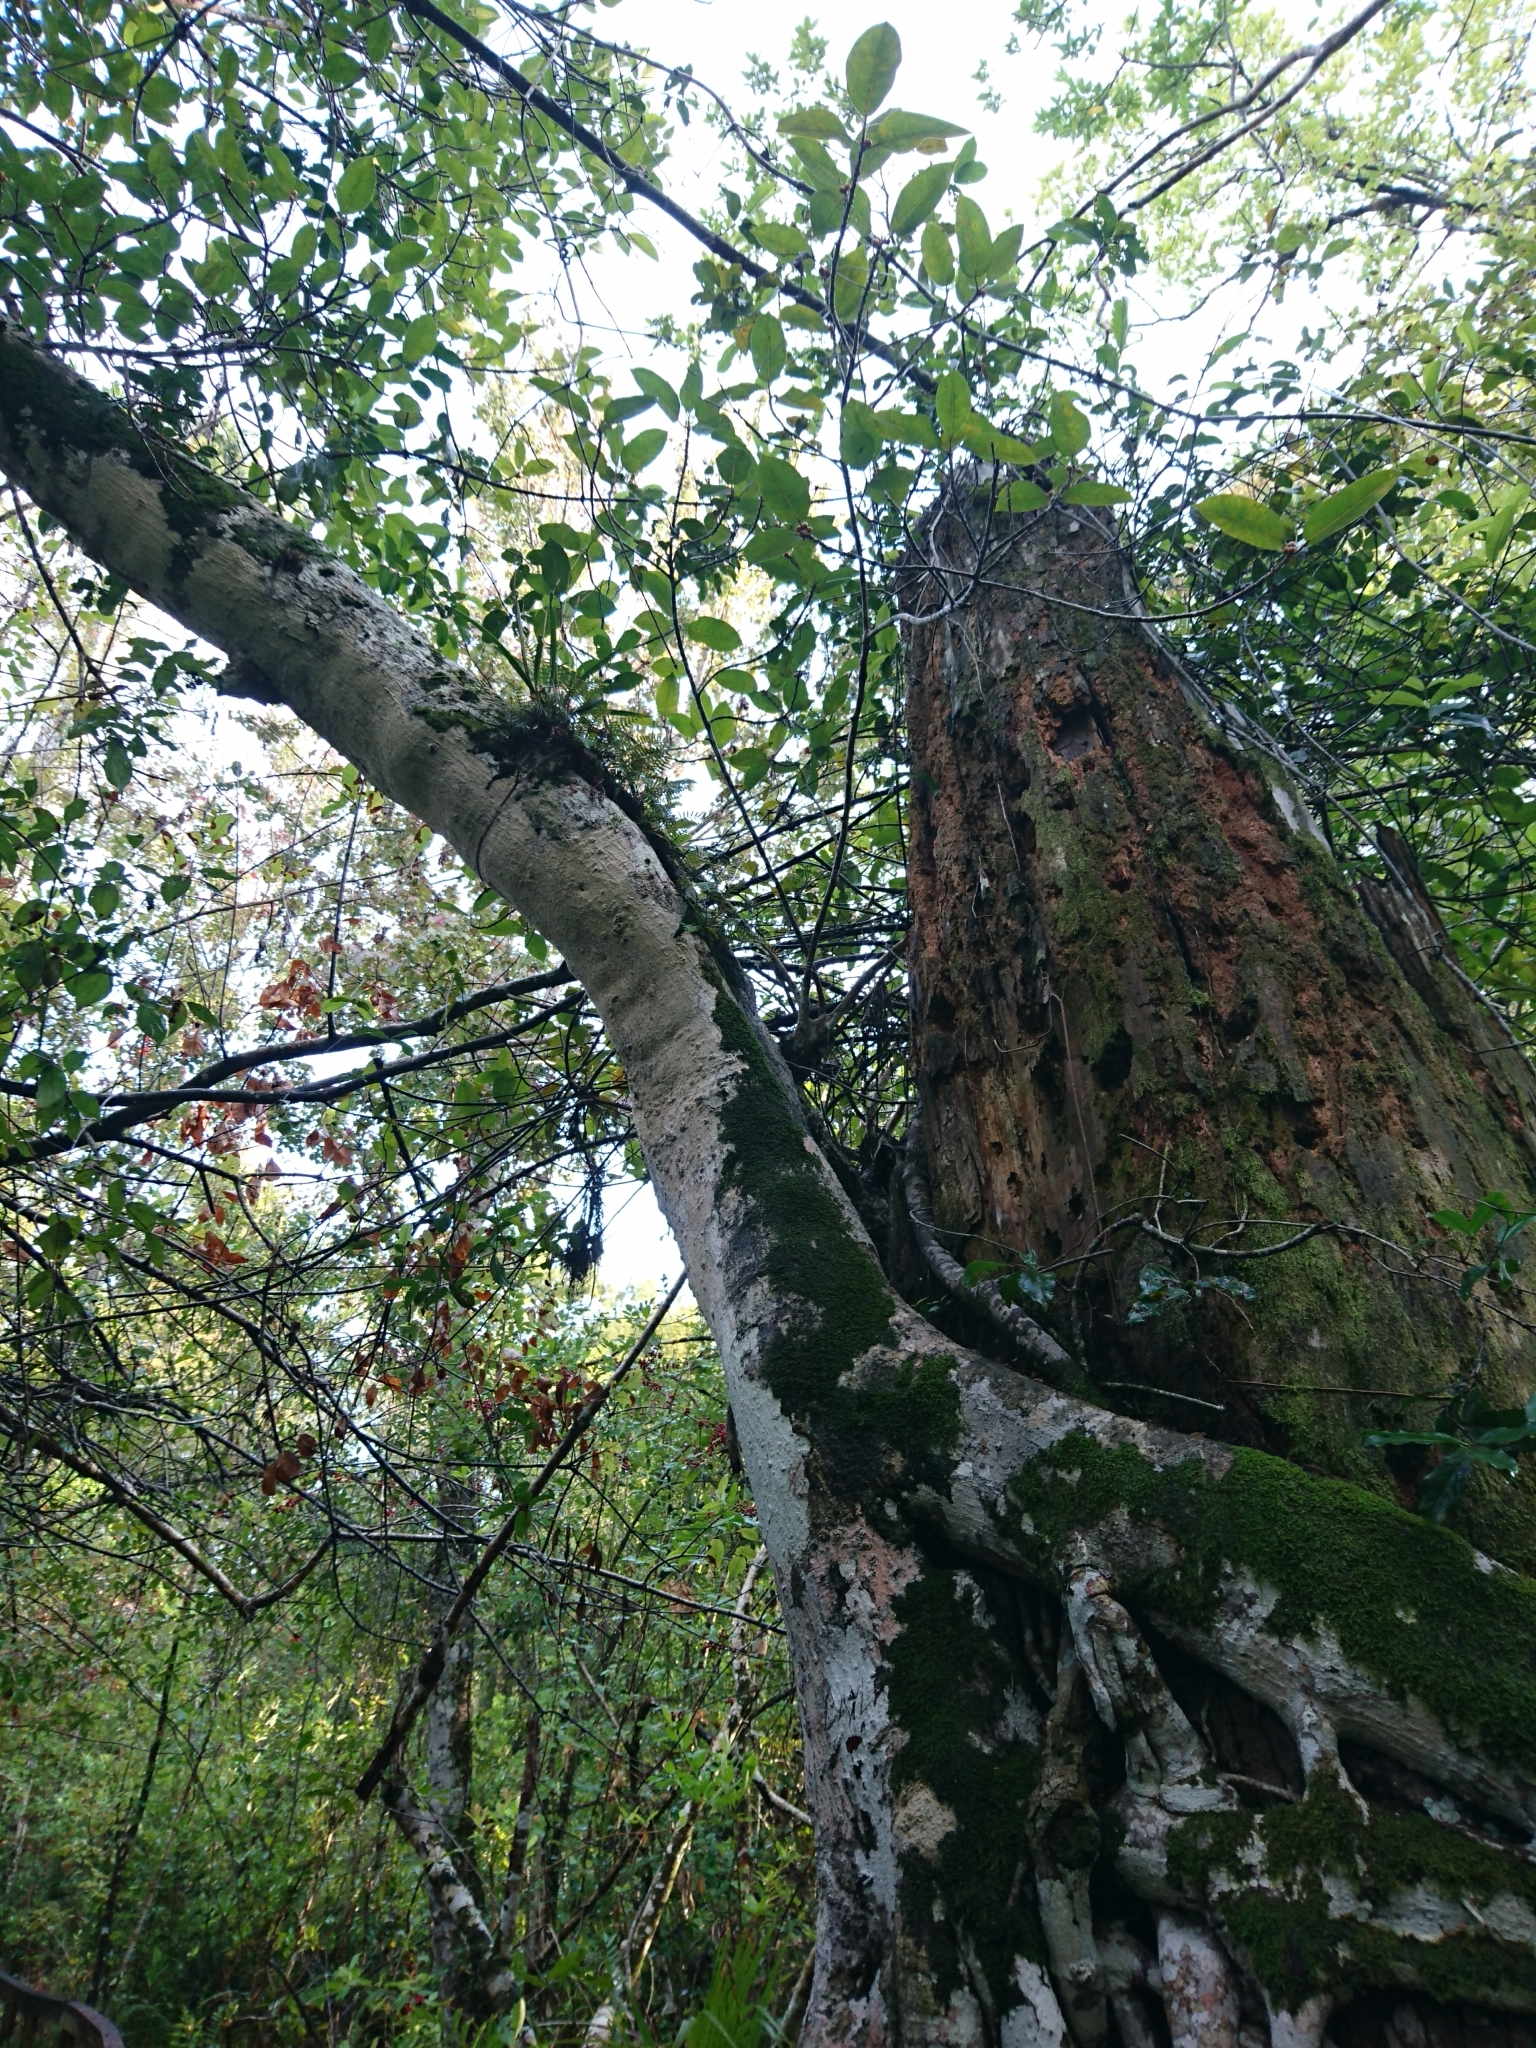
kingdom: Plantae
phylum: Tracheophyta
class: Magnoliopsida
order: Rosales
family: Moraceae
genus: Ficus
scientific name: Ficus aurea
